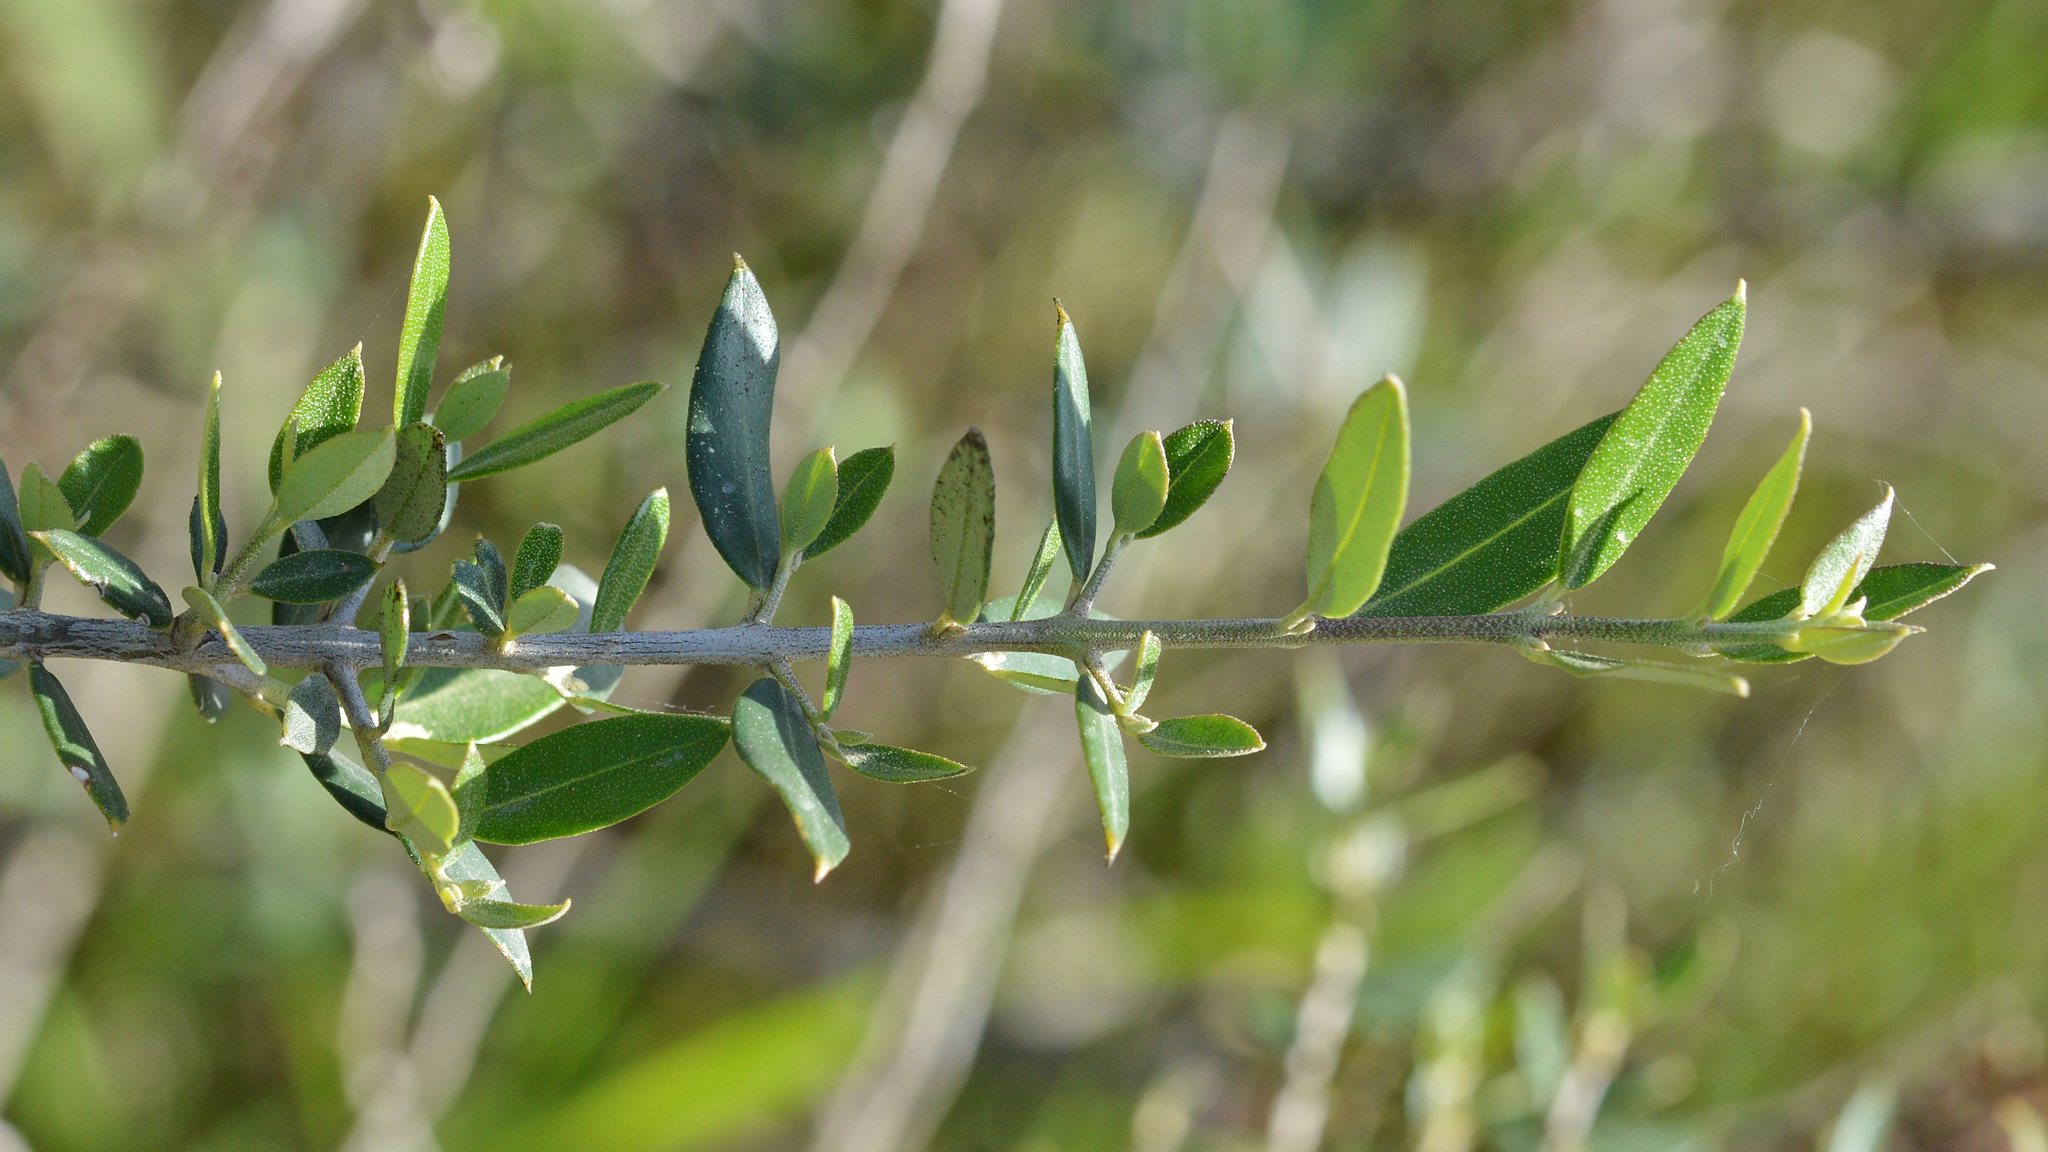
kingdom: Plantae
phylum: Tracheophyta
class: Magnoliopsida
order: Lamiales
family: Oleaceae
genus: Olea
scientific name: Olea europaea
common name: Olive
